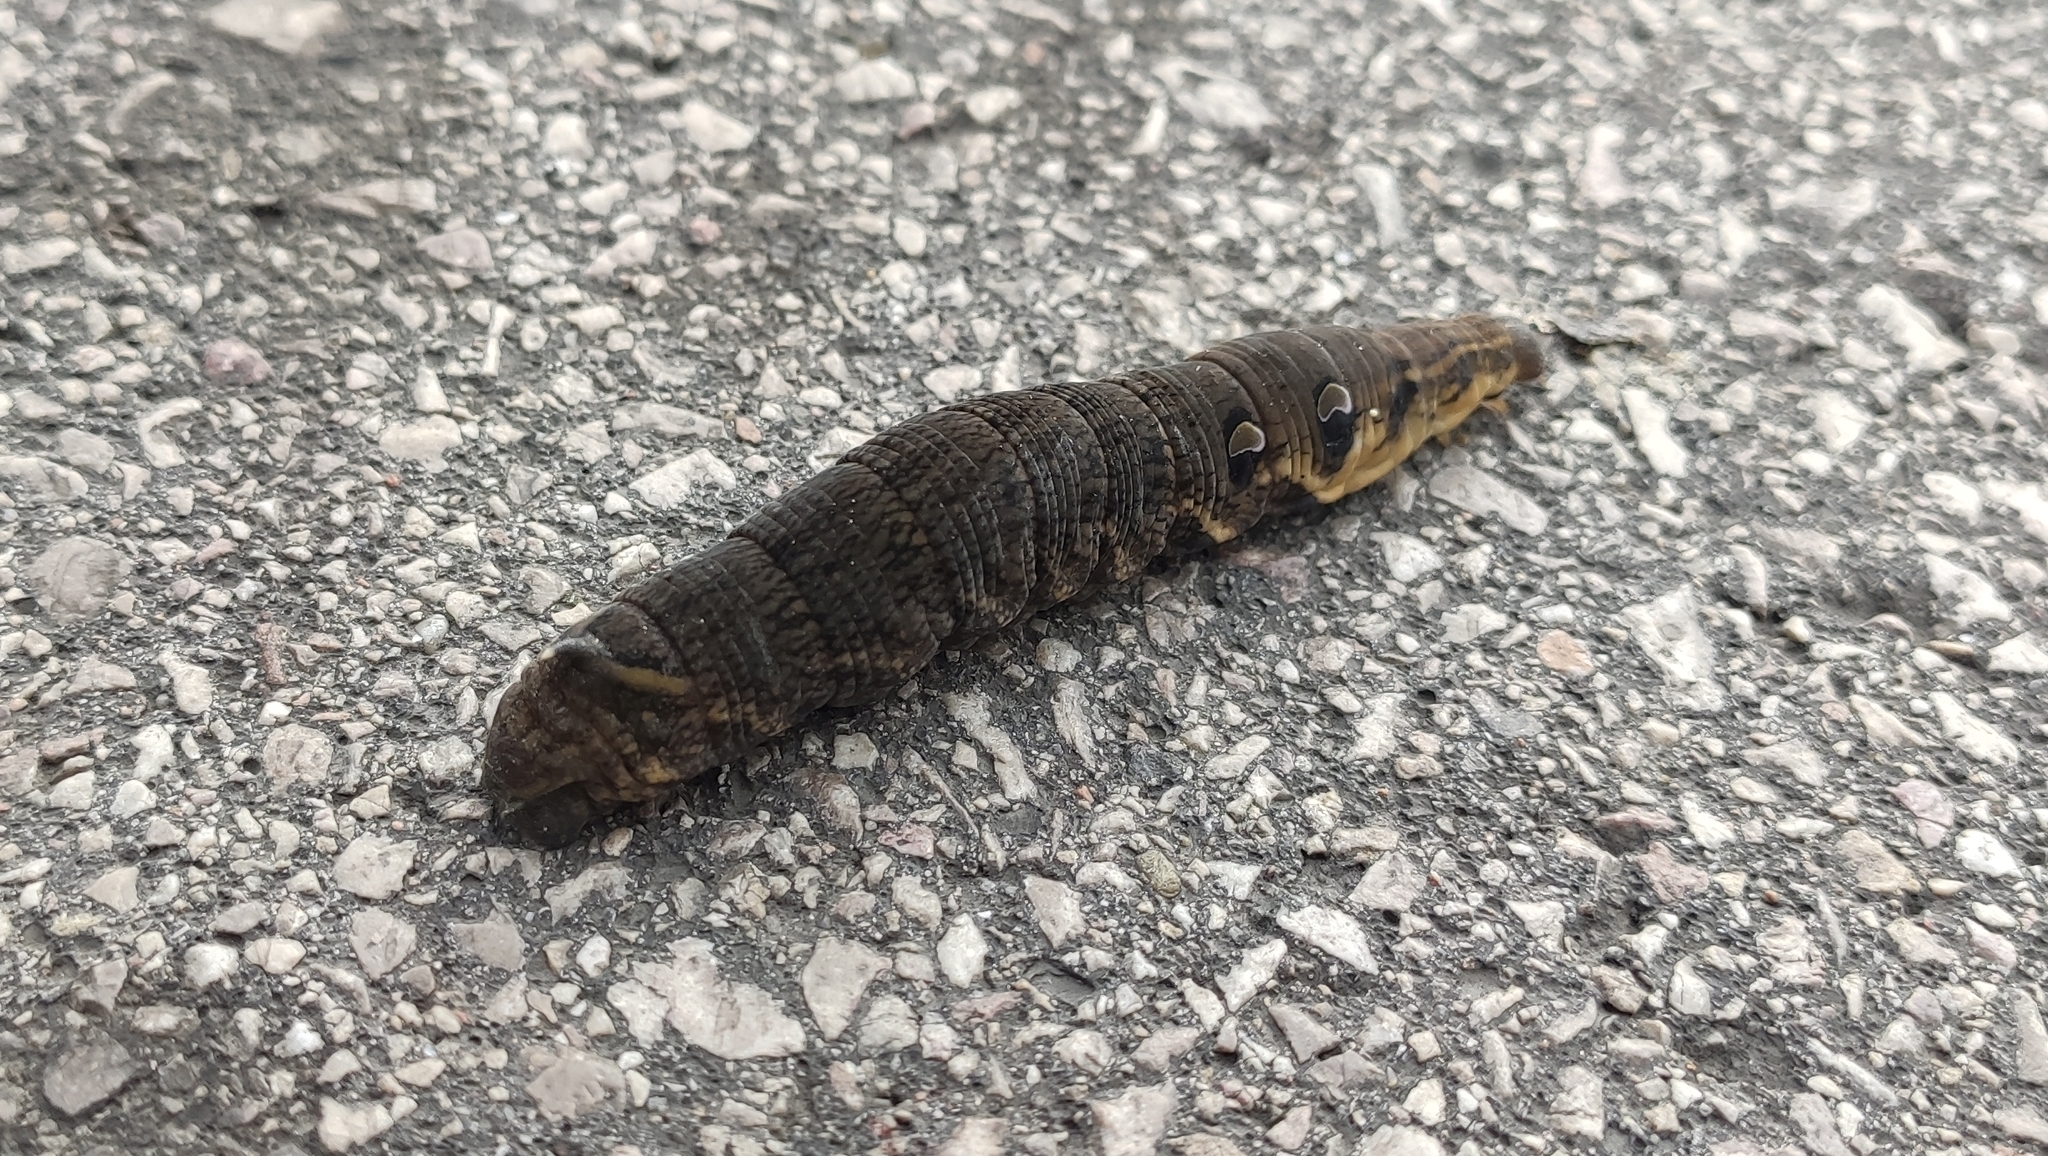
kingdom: Animalia
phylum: Arthropoda
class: Insecta
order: Lepidoptera
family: Sphingidae
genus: Deilephila
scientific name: Deilephila elpenor
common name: Elephant hawk-moth
